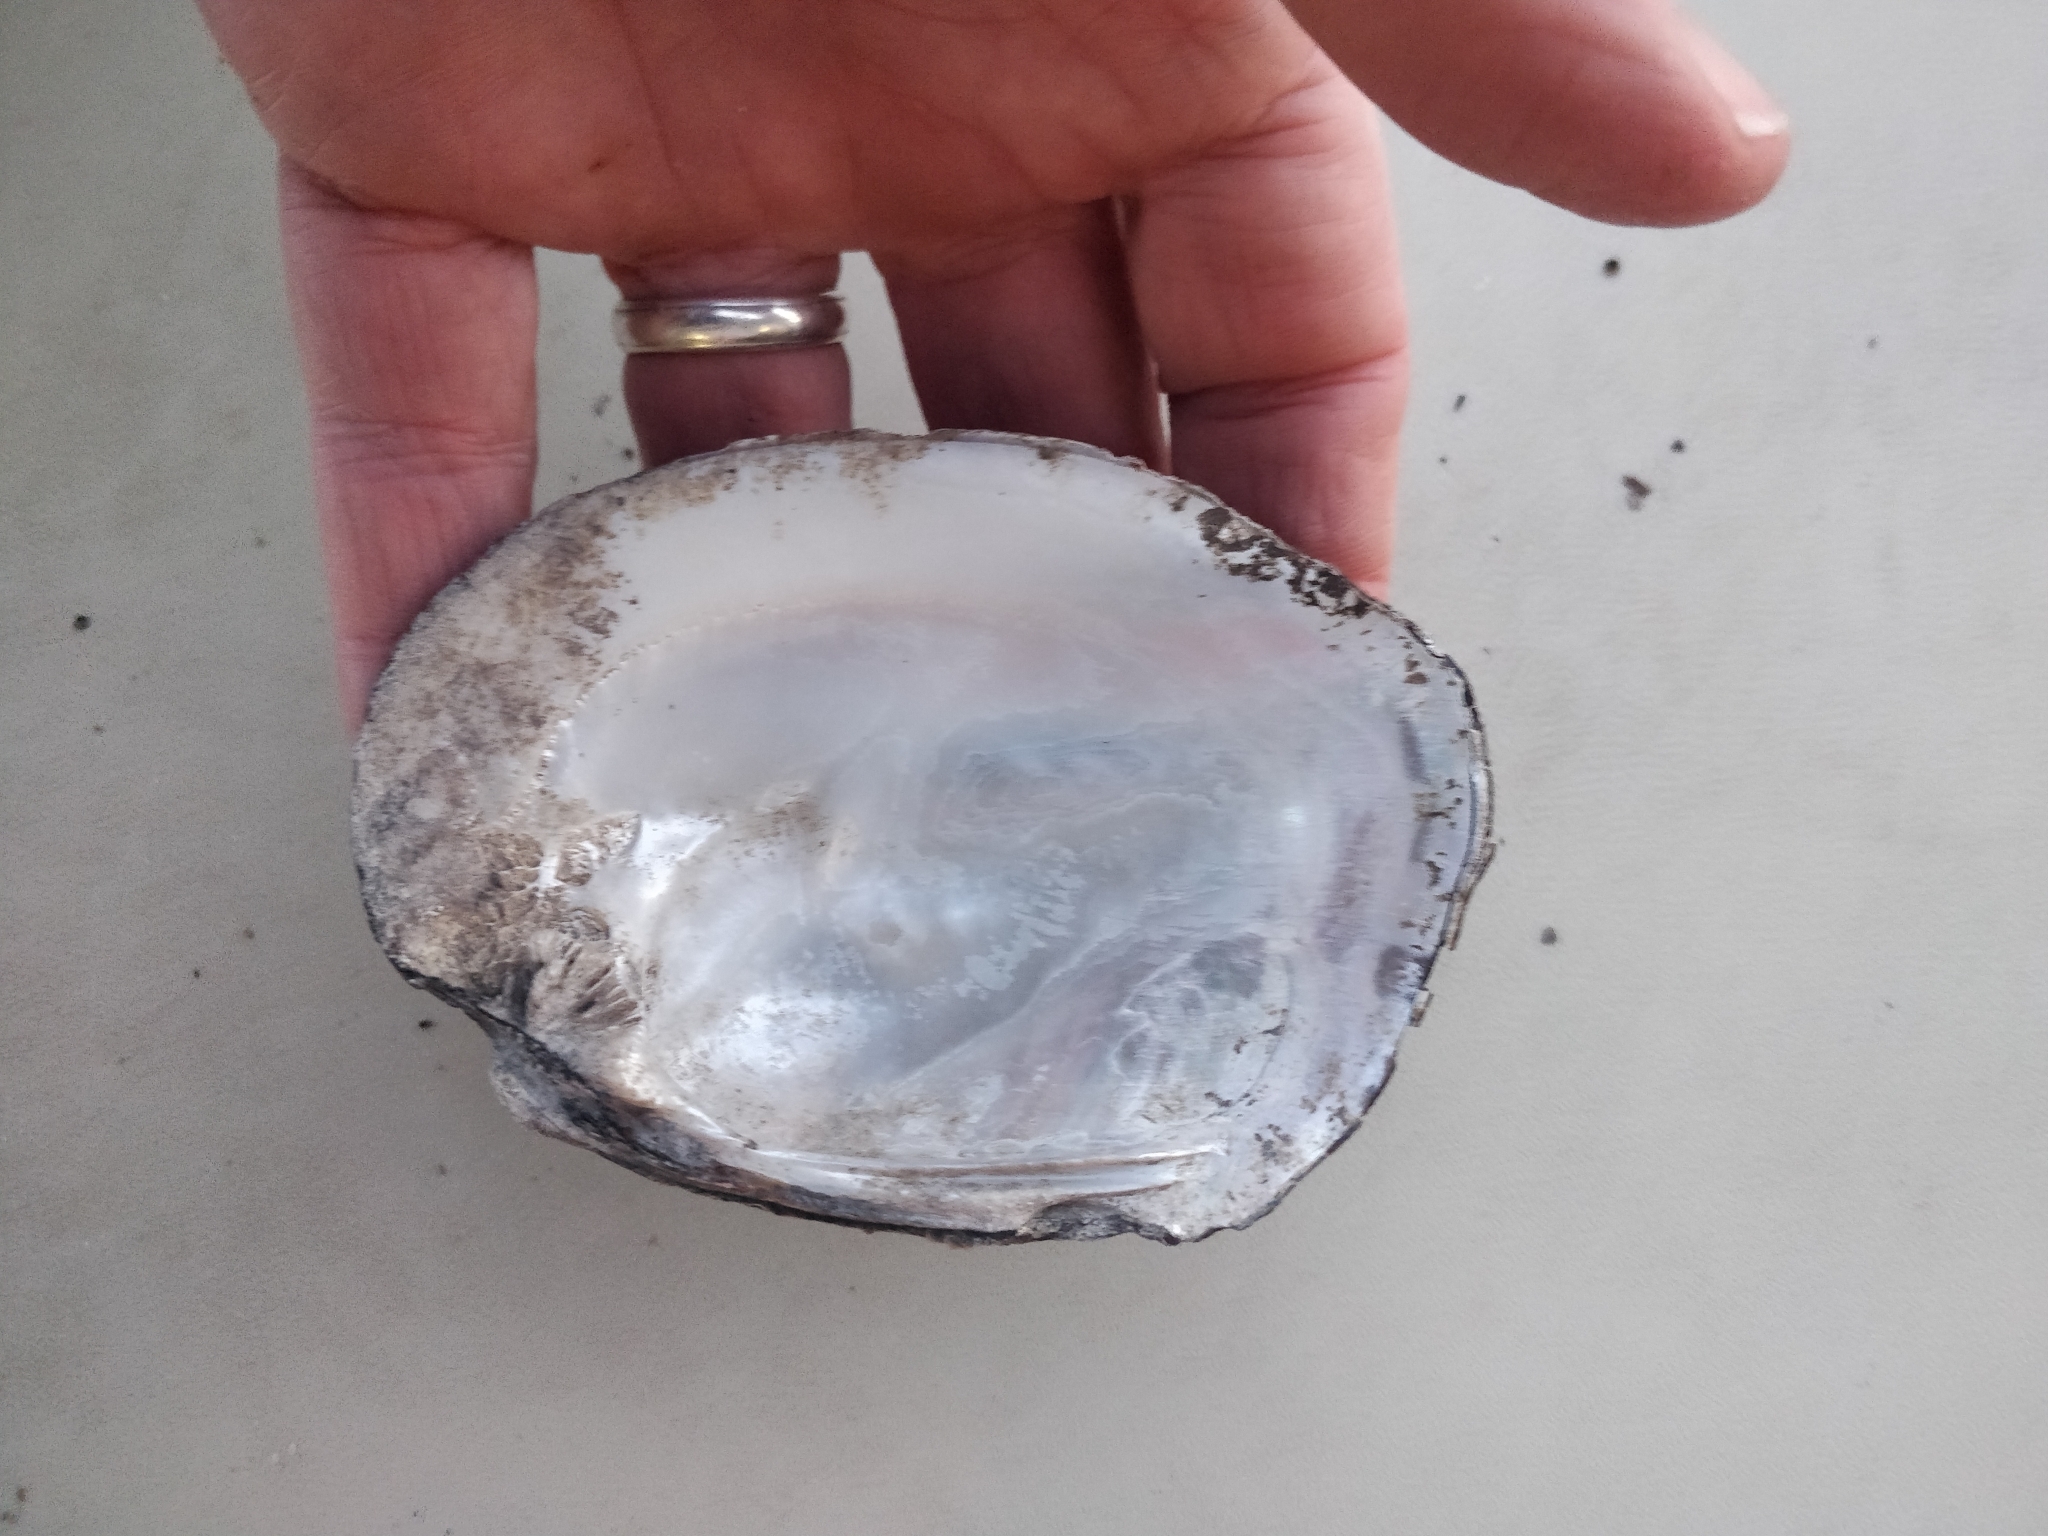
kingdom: Animalia
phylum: Mollusca
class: Bivalvia
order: Unionida
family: Unionidae
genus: Amblema
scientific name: Amblema plicata
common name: Threeridge
